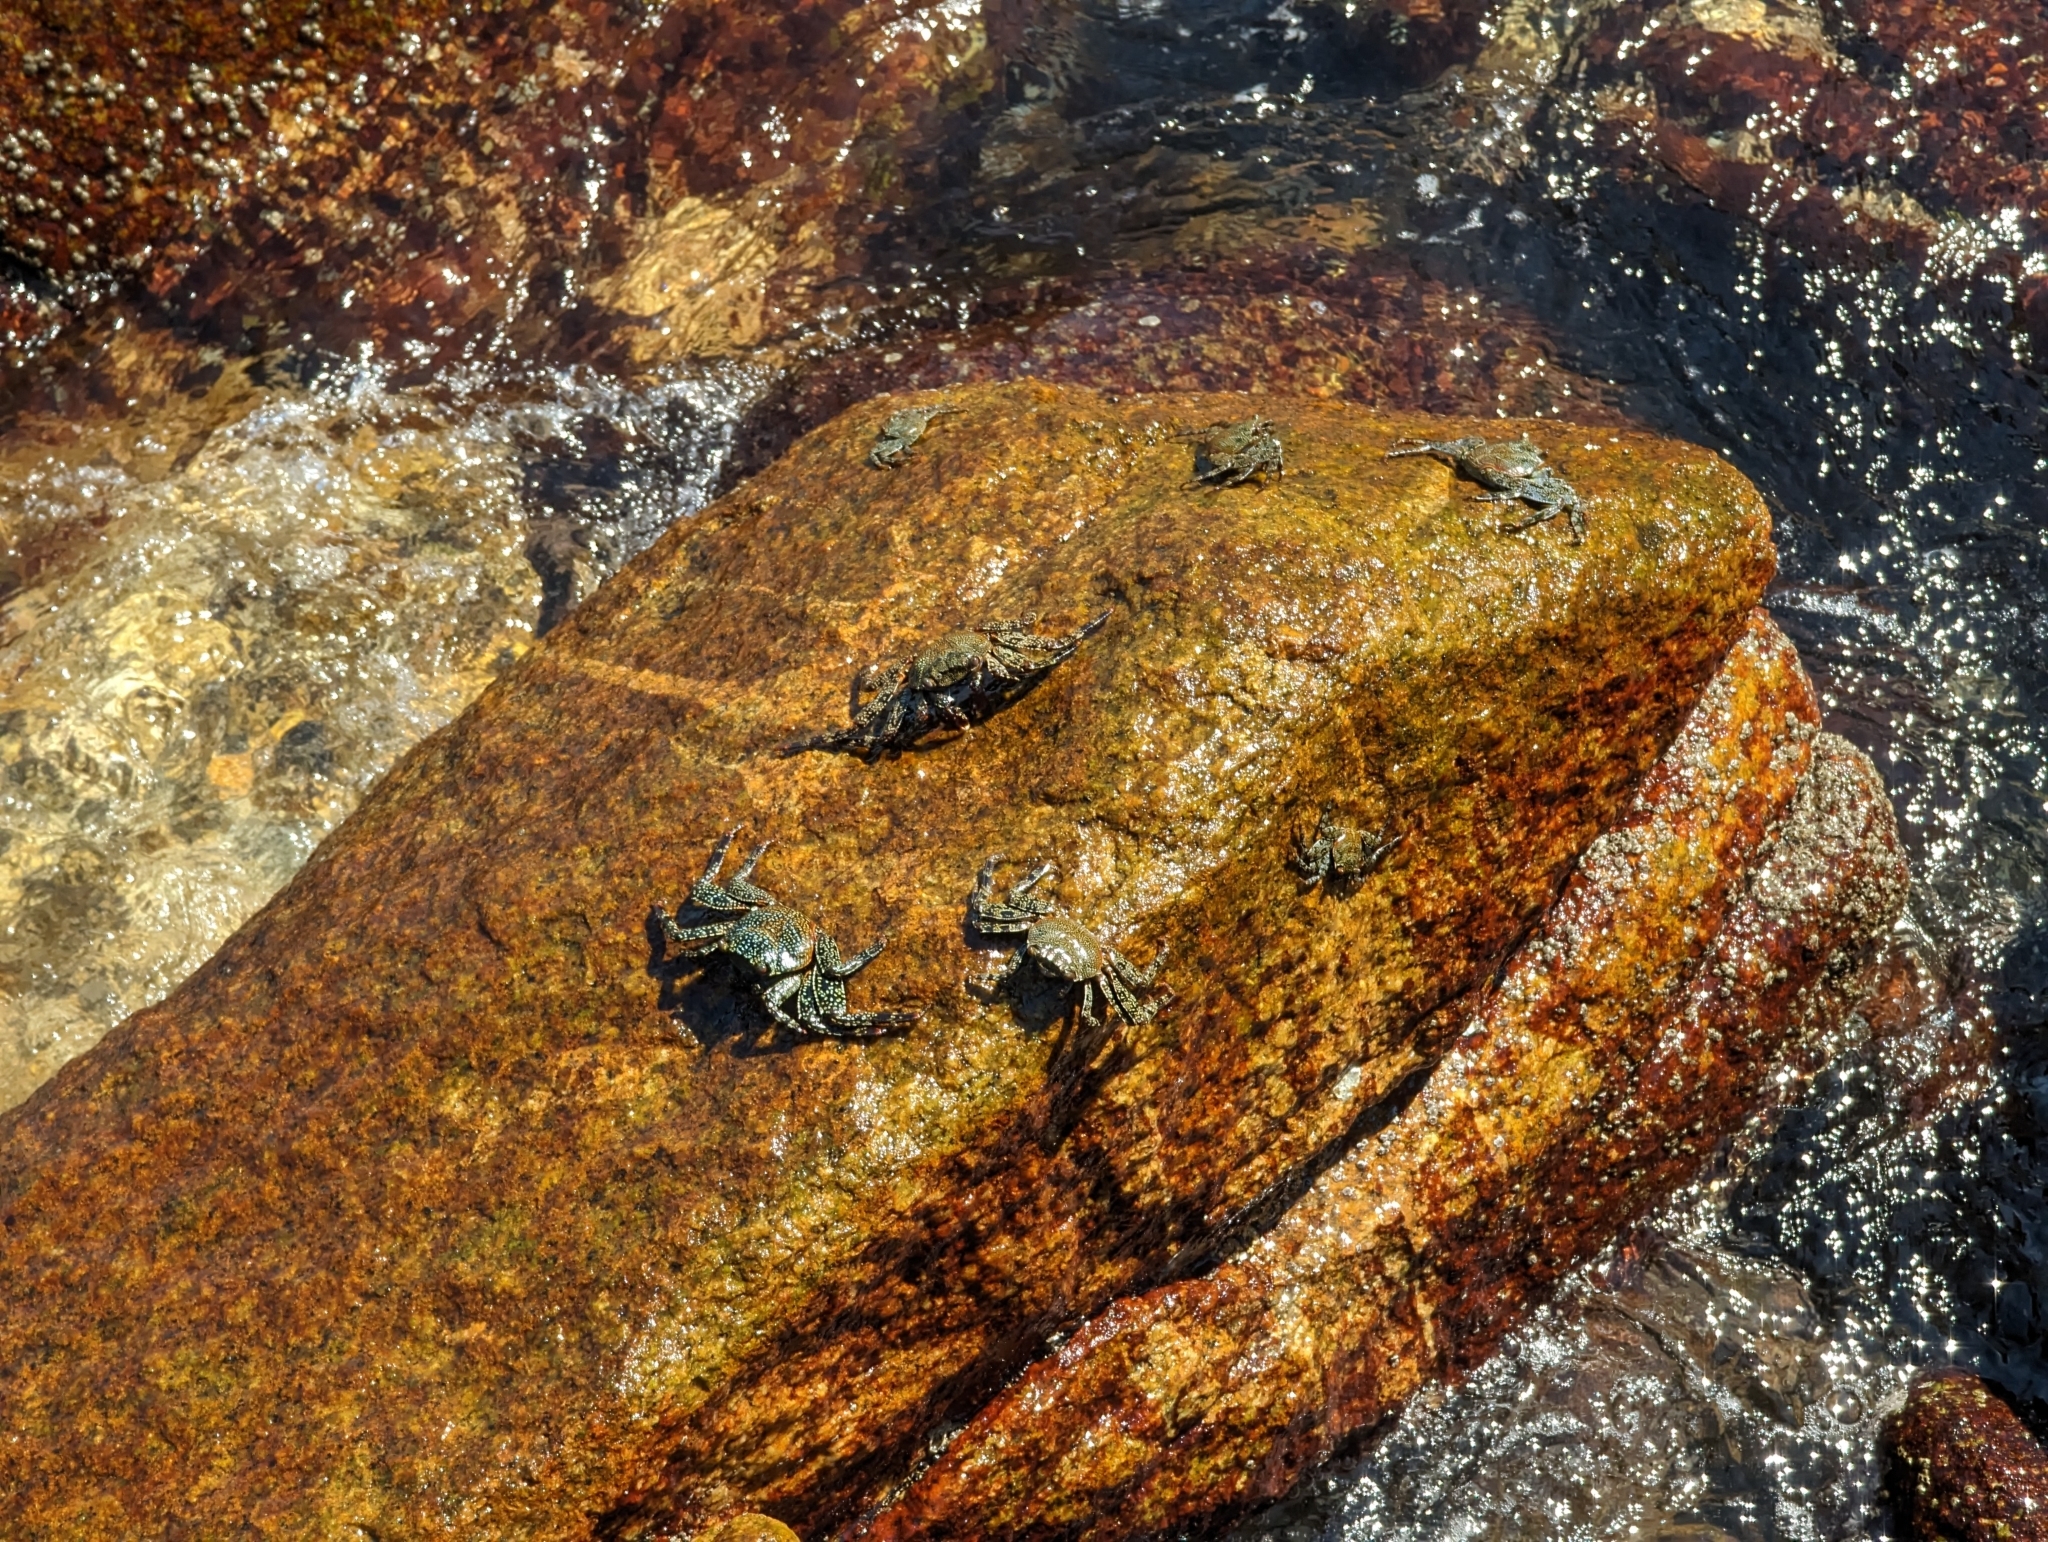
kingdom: Animalia
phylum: Arthropoda
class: Malacostraca
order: Decapoda
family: Grapsidae
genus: Grapsus
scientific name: Grapsus grapsus
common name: Sally lightfoot
